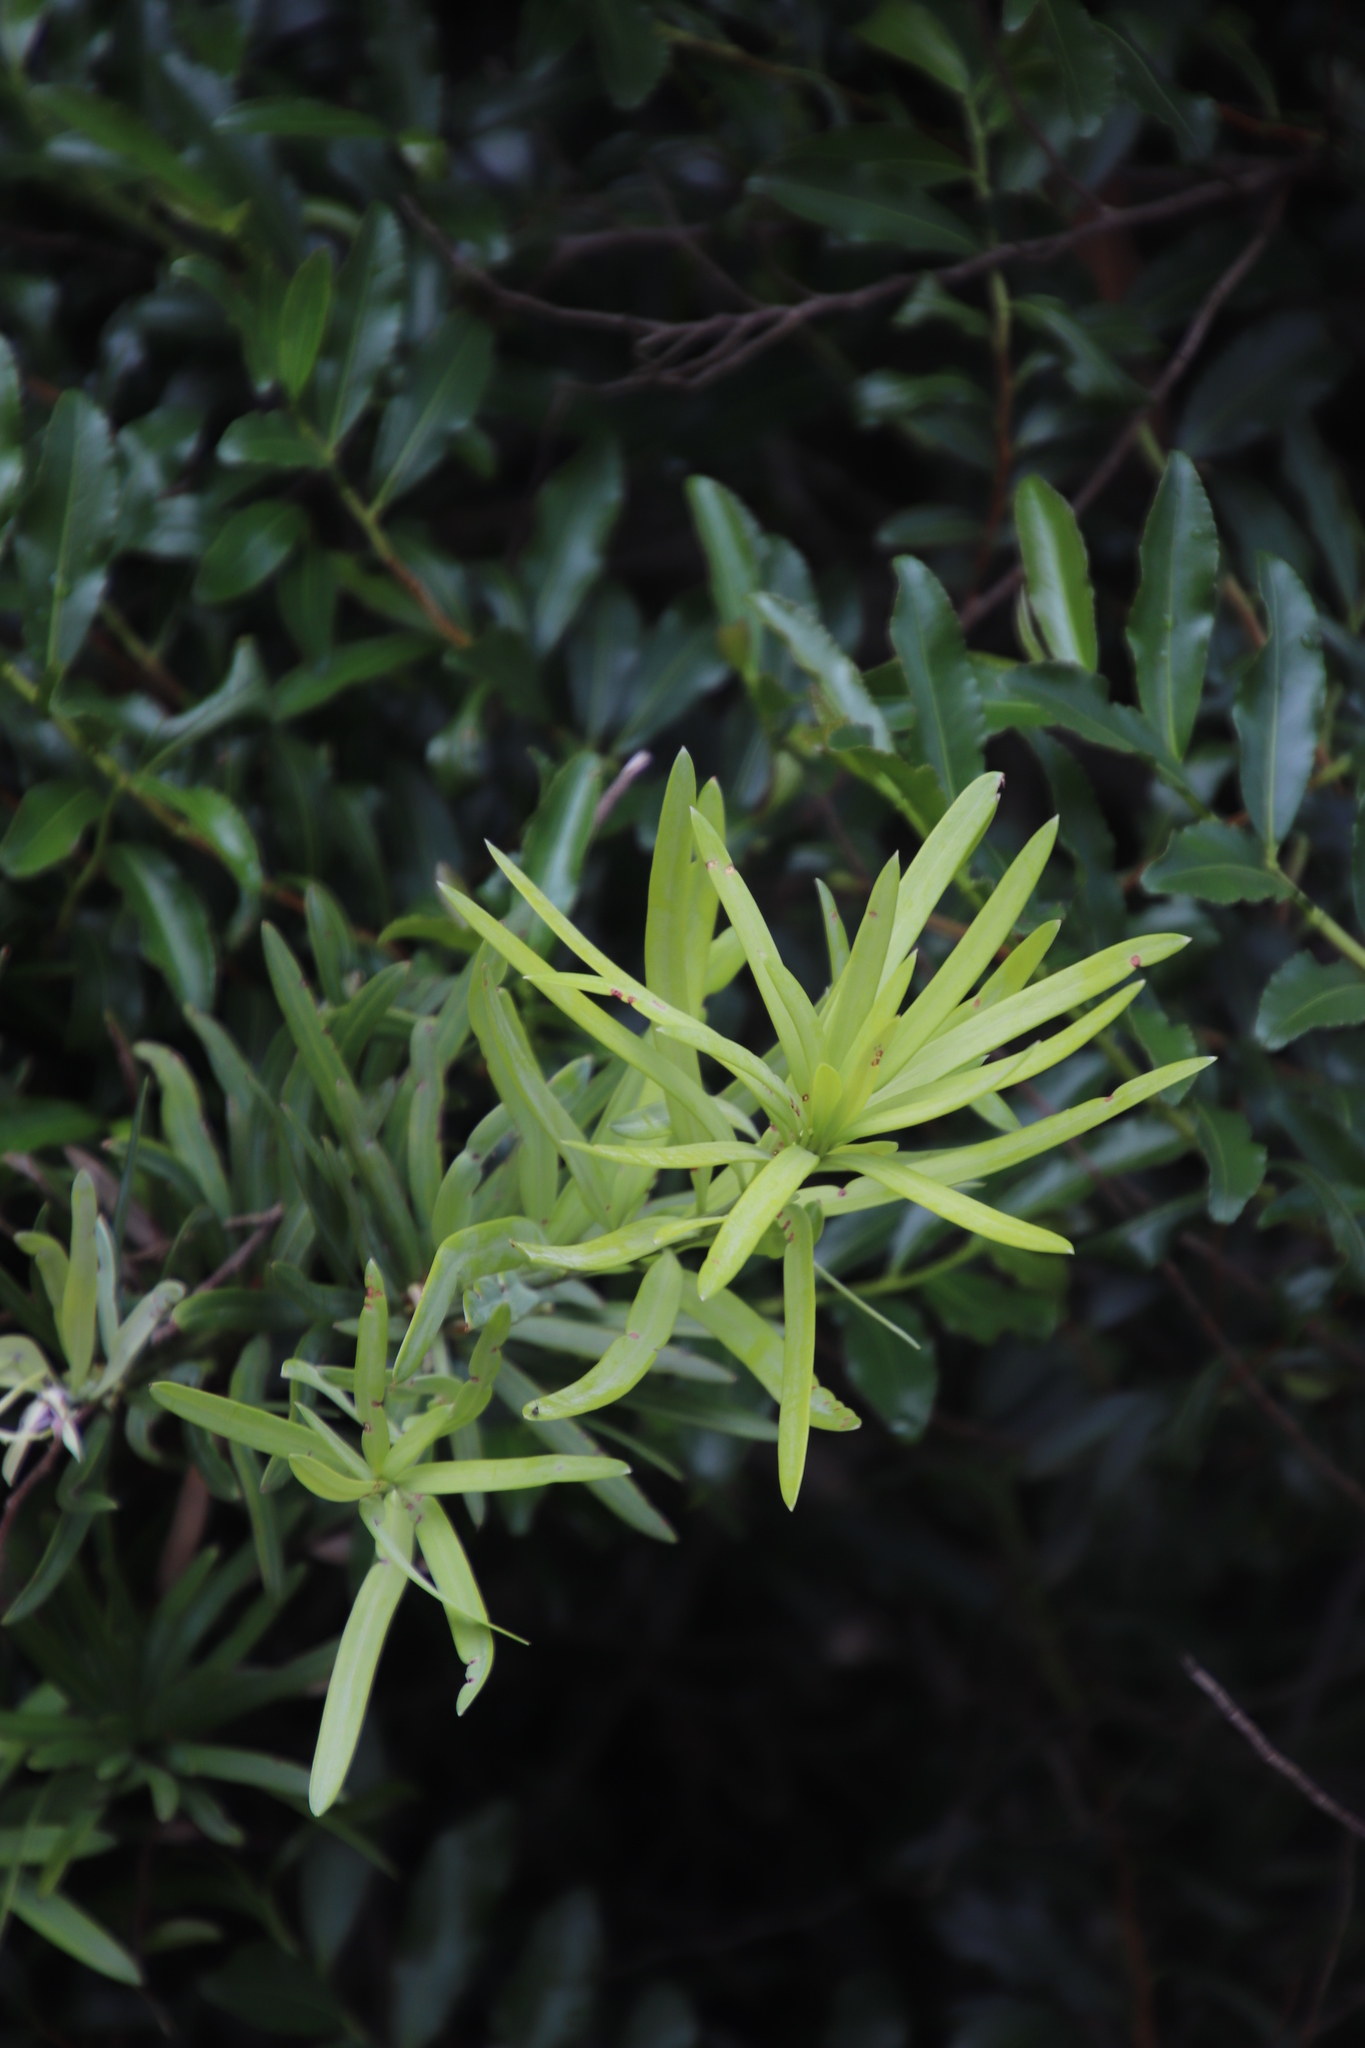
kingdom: Plantae
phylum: Tracheophyta
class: Pinopsida
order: Pinales
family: Podocarpaceae
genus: Podocarpus
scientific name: Podocarpus latifolius
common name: True yellowwood
